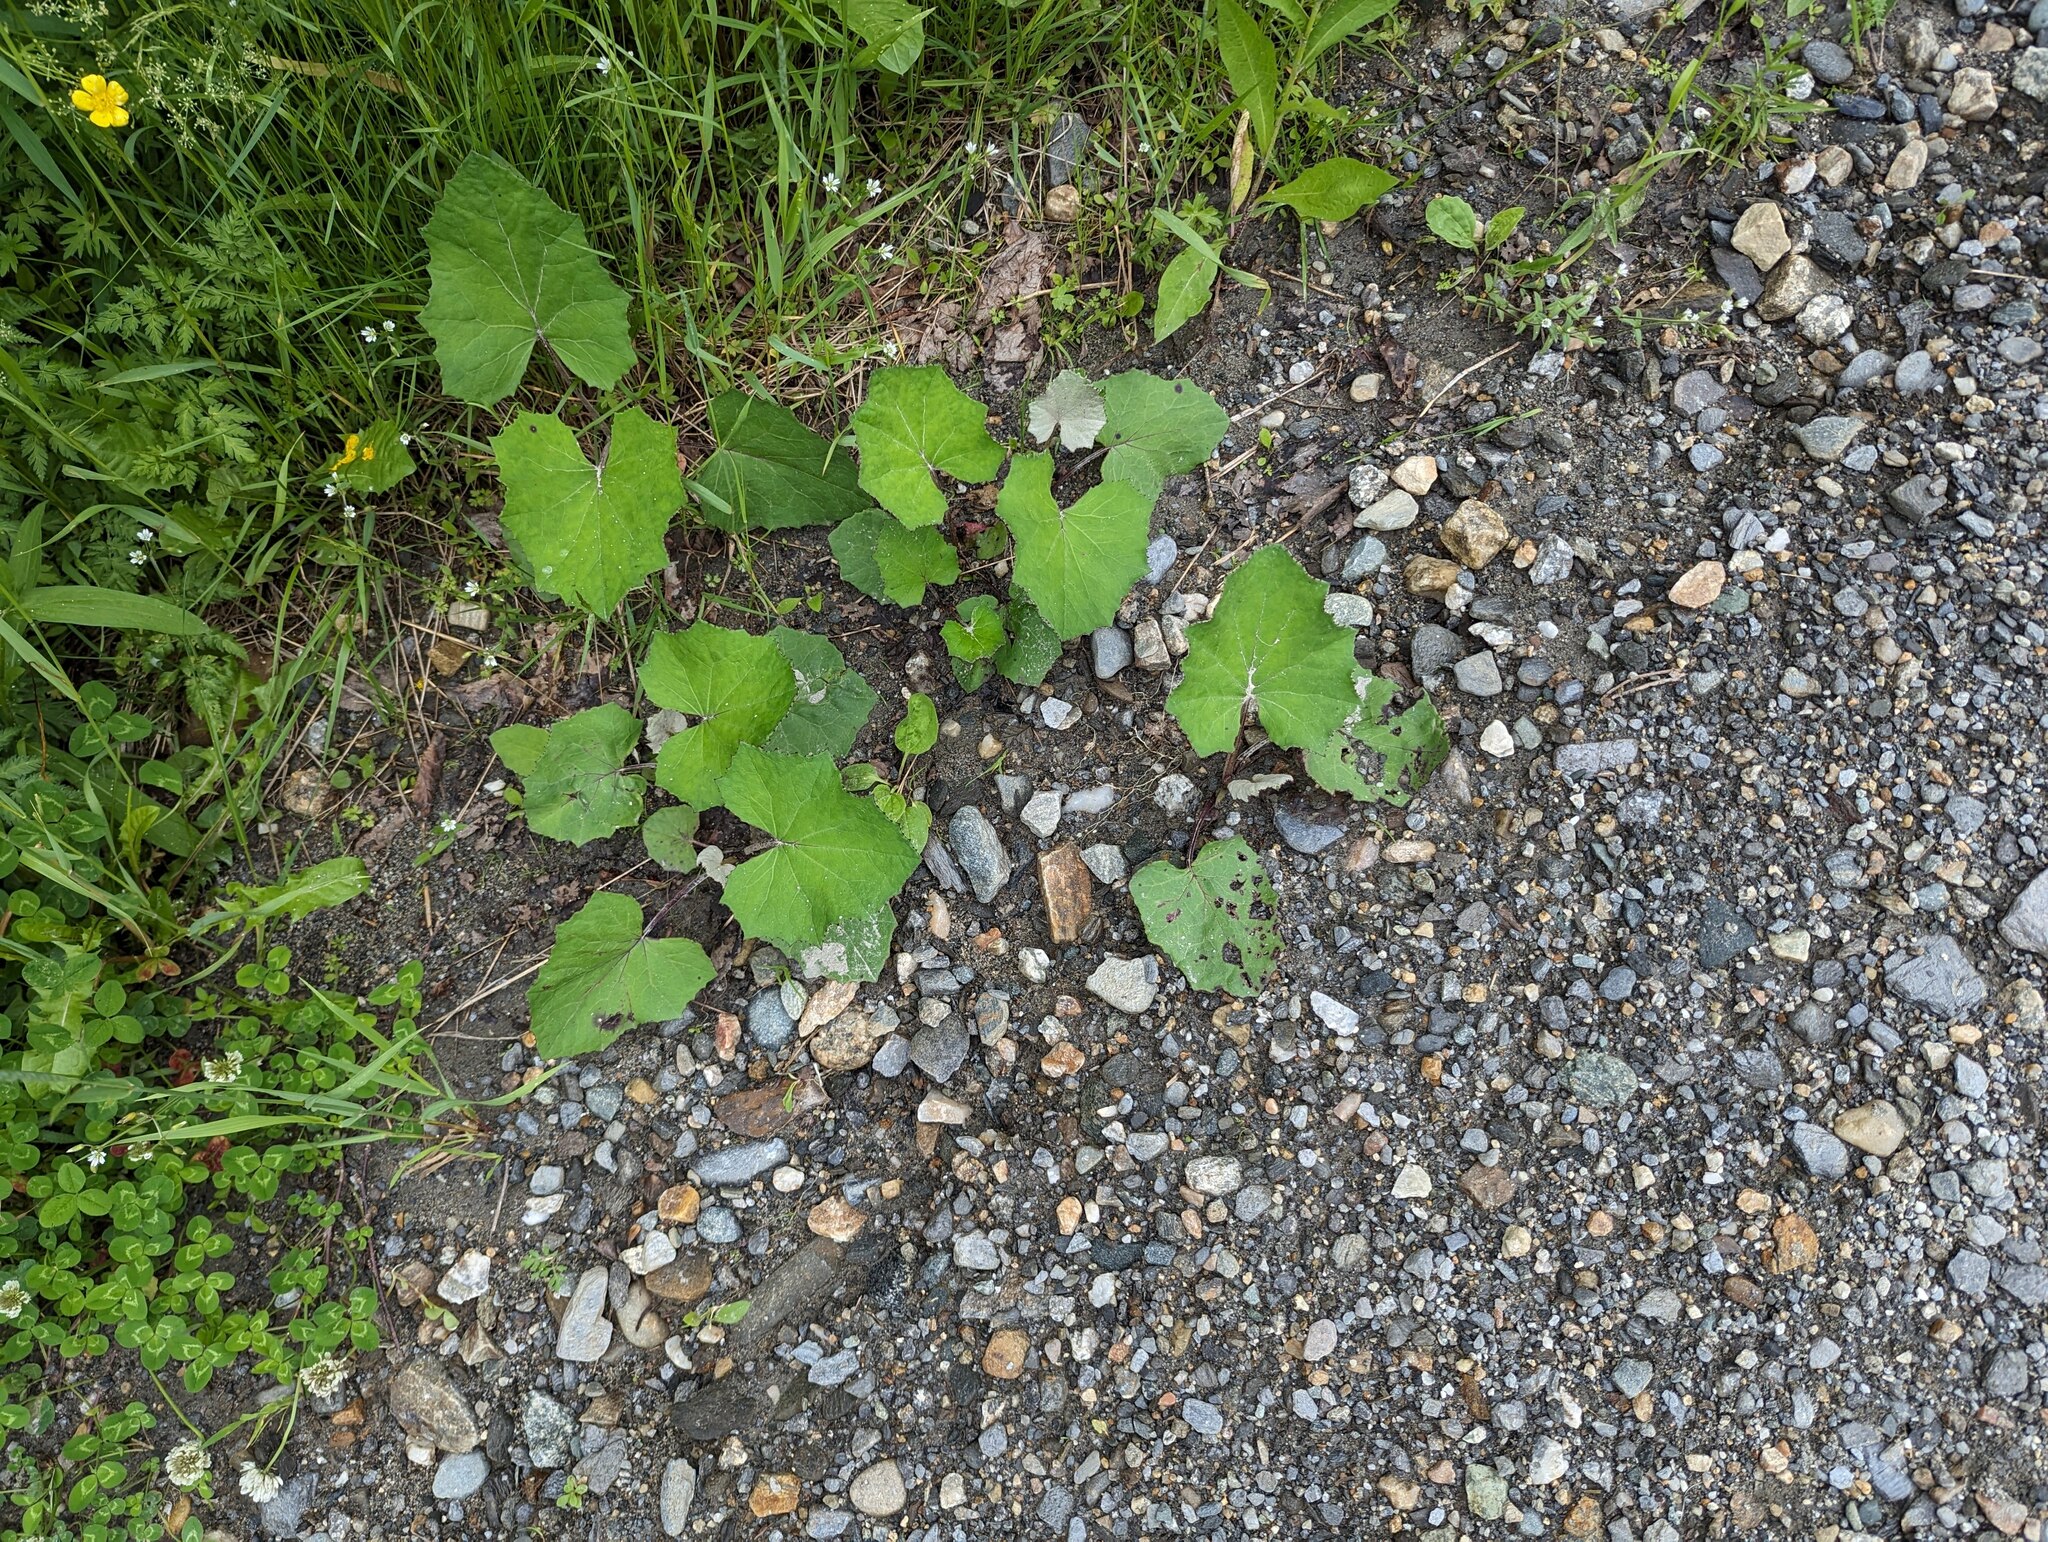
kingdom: Plantae
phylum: Tracheophyta
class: Magnoliopsida
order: Asterales
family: Asteraceae
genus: Tussilago
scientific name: Tussilago farfara
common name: Coltsfoot
